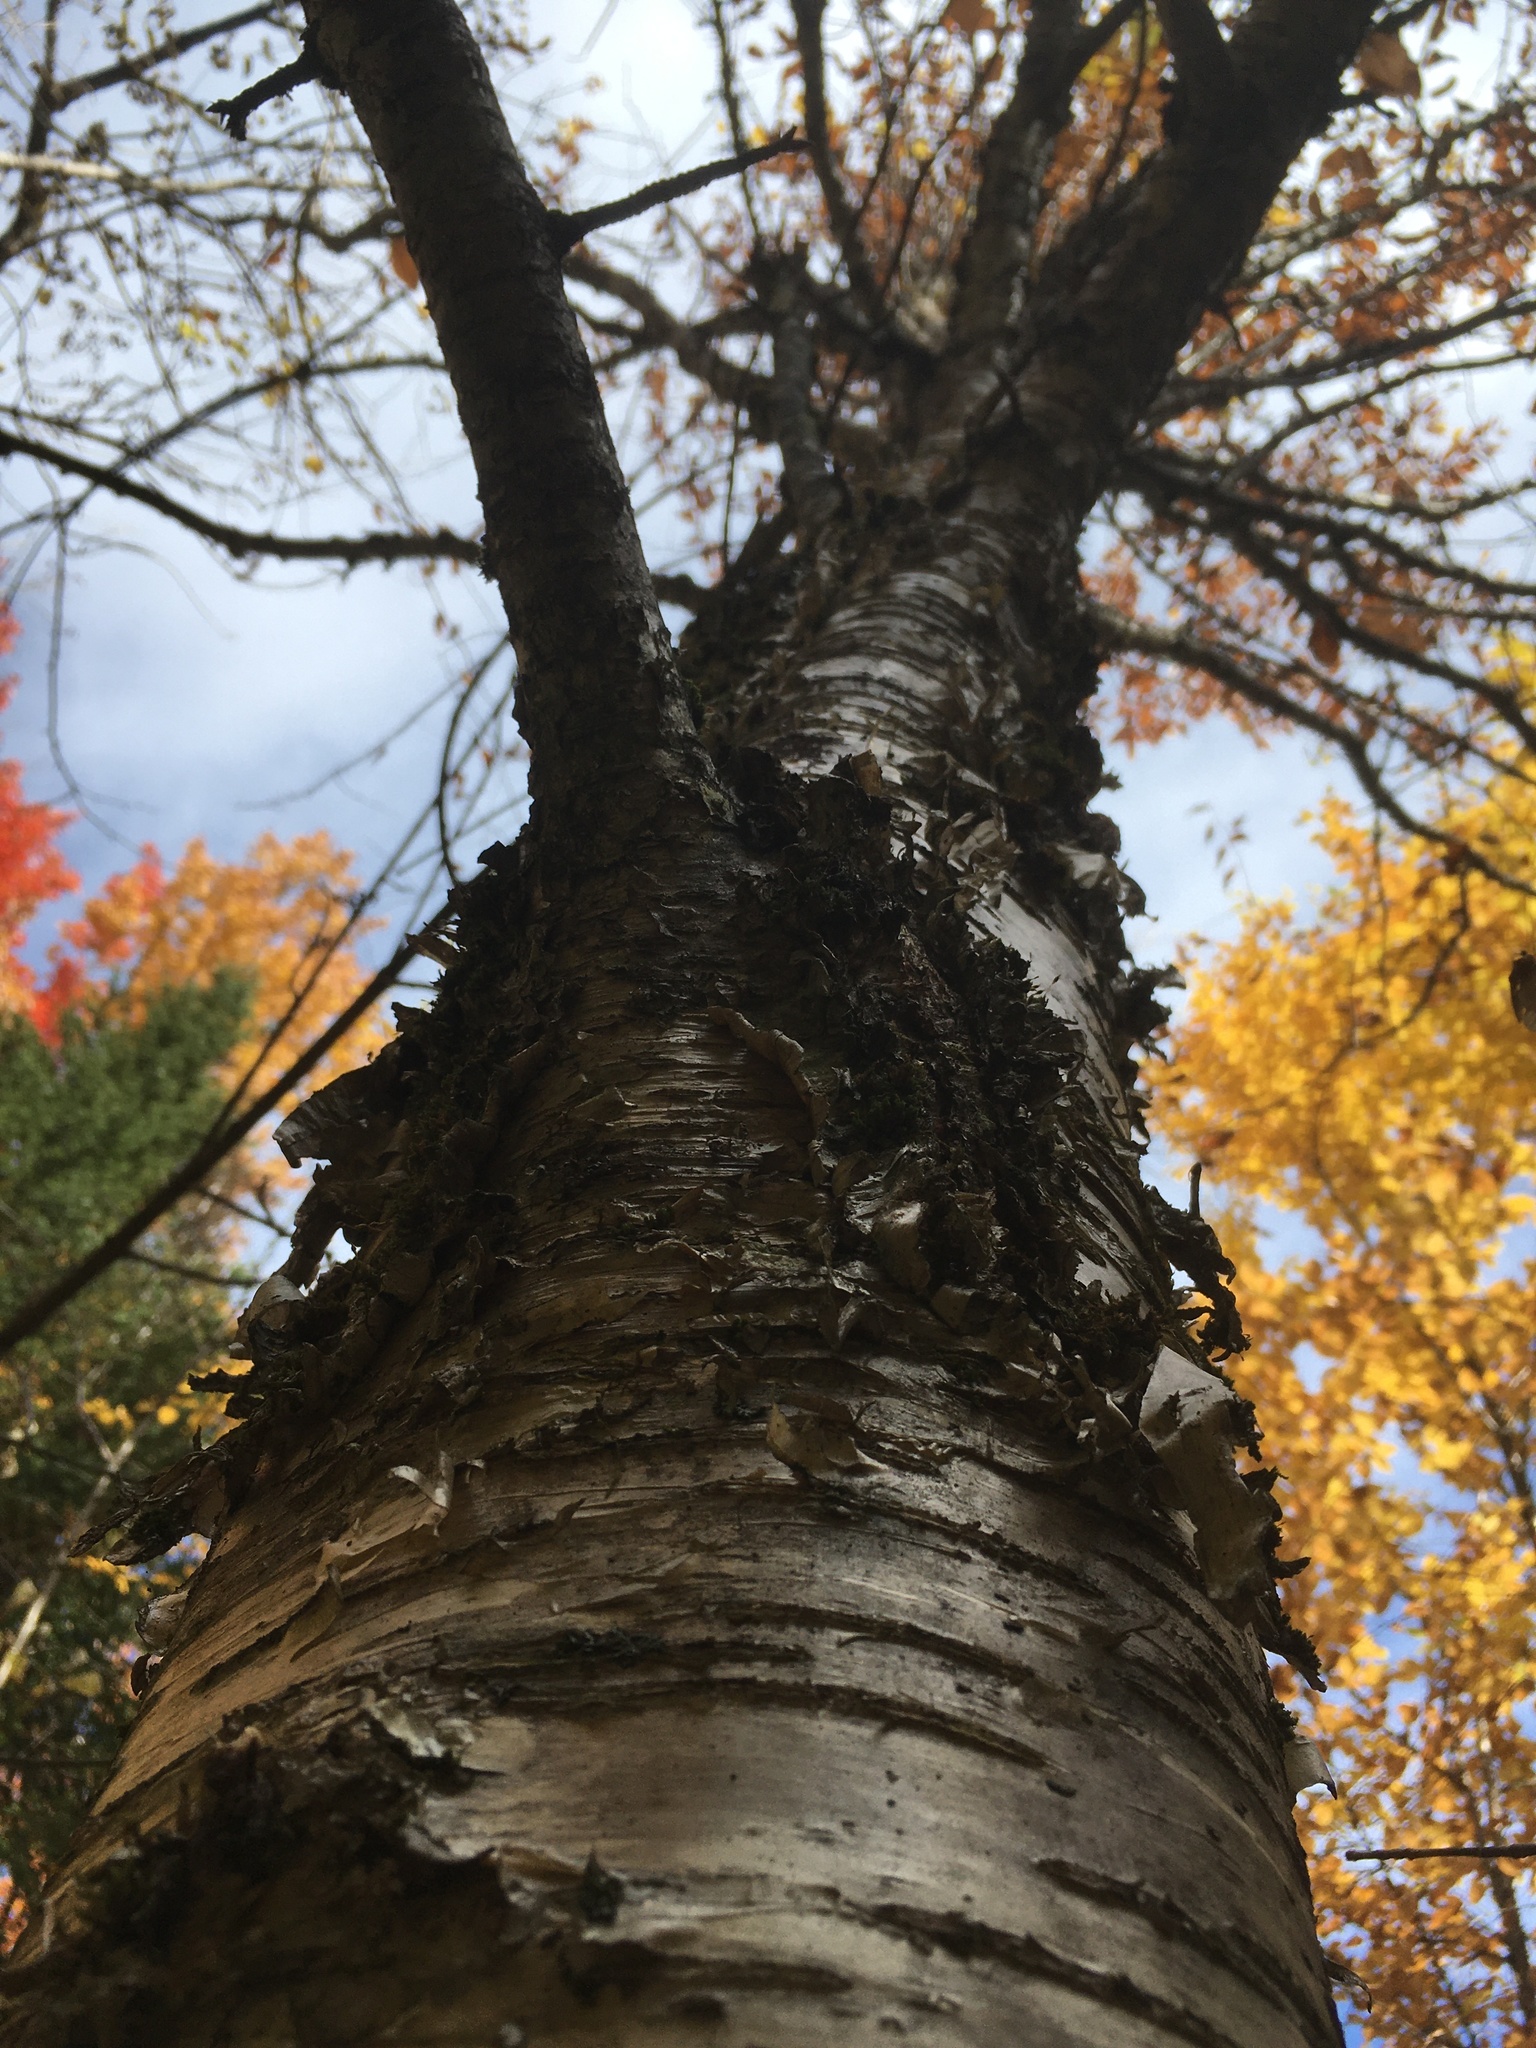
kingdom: Plantae
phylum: Tracheophyta
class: Magnoliopsida
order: Fagales
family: Betulaceae
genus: Betula
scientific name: Betula alleghaniensis
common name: Yellow birch
